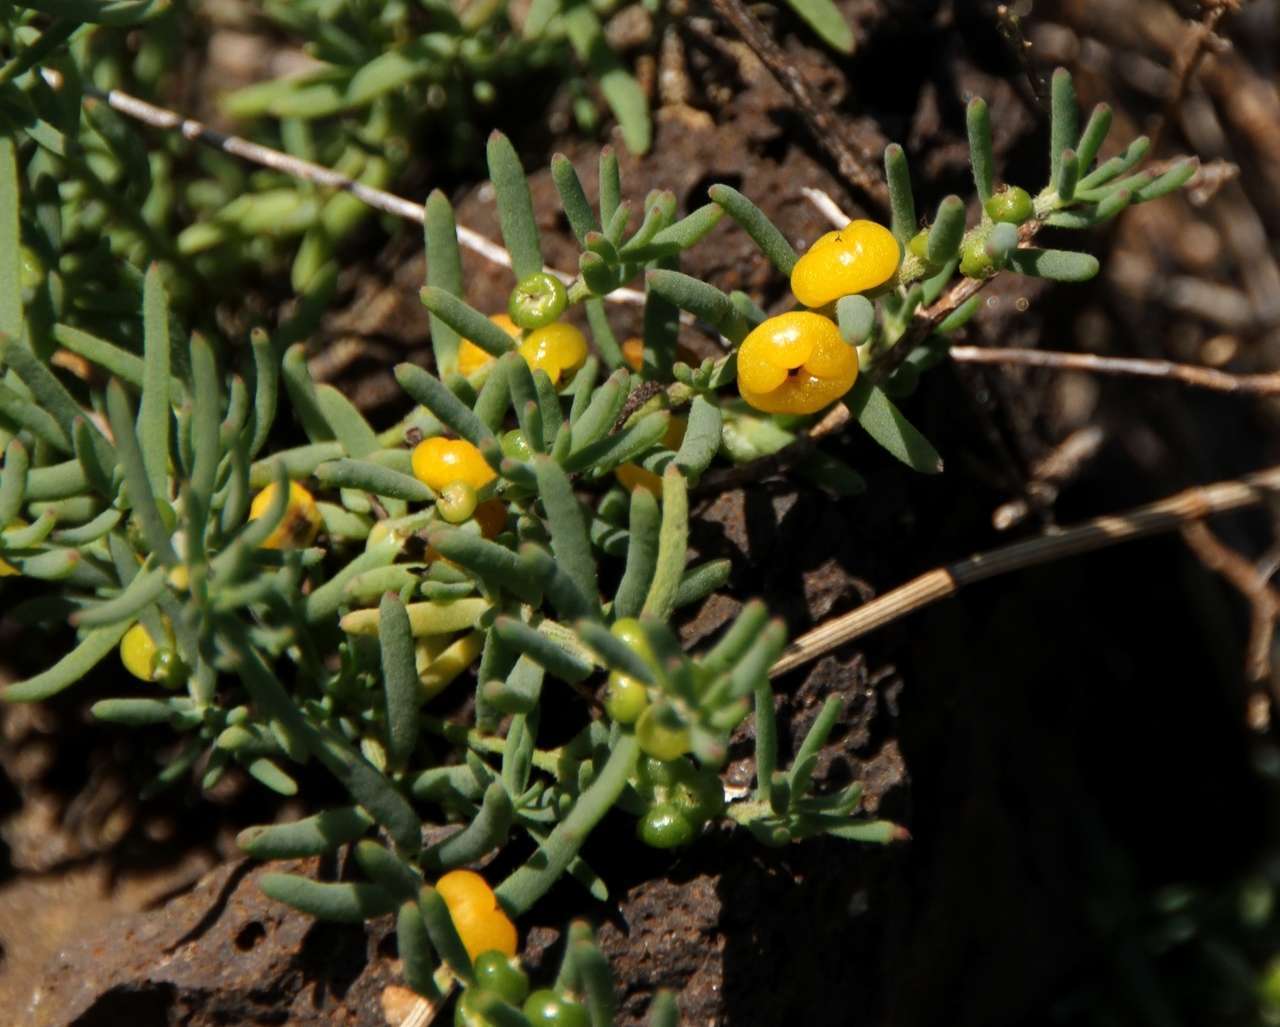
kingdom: Plantae
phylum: Tracheophyta
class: Magnoliopsida
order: Caryophyllales
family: Amaranthaceae
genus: Enchylaena
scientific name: Enchylaena tomentosa
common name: Ruby saltbush
